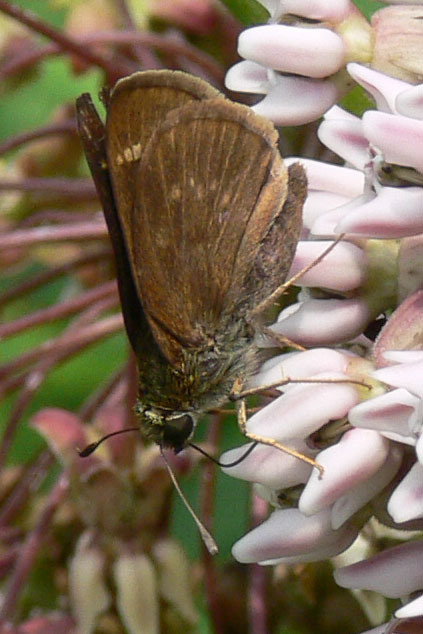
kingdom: Animalia
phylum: Arthropoda
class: Insecta
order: Lepidoptera
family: Hesperiidae
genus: Euphyes
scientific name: Euphyes vestris
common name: Dun skipper
